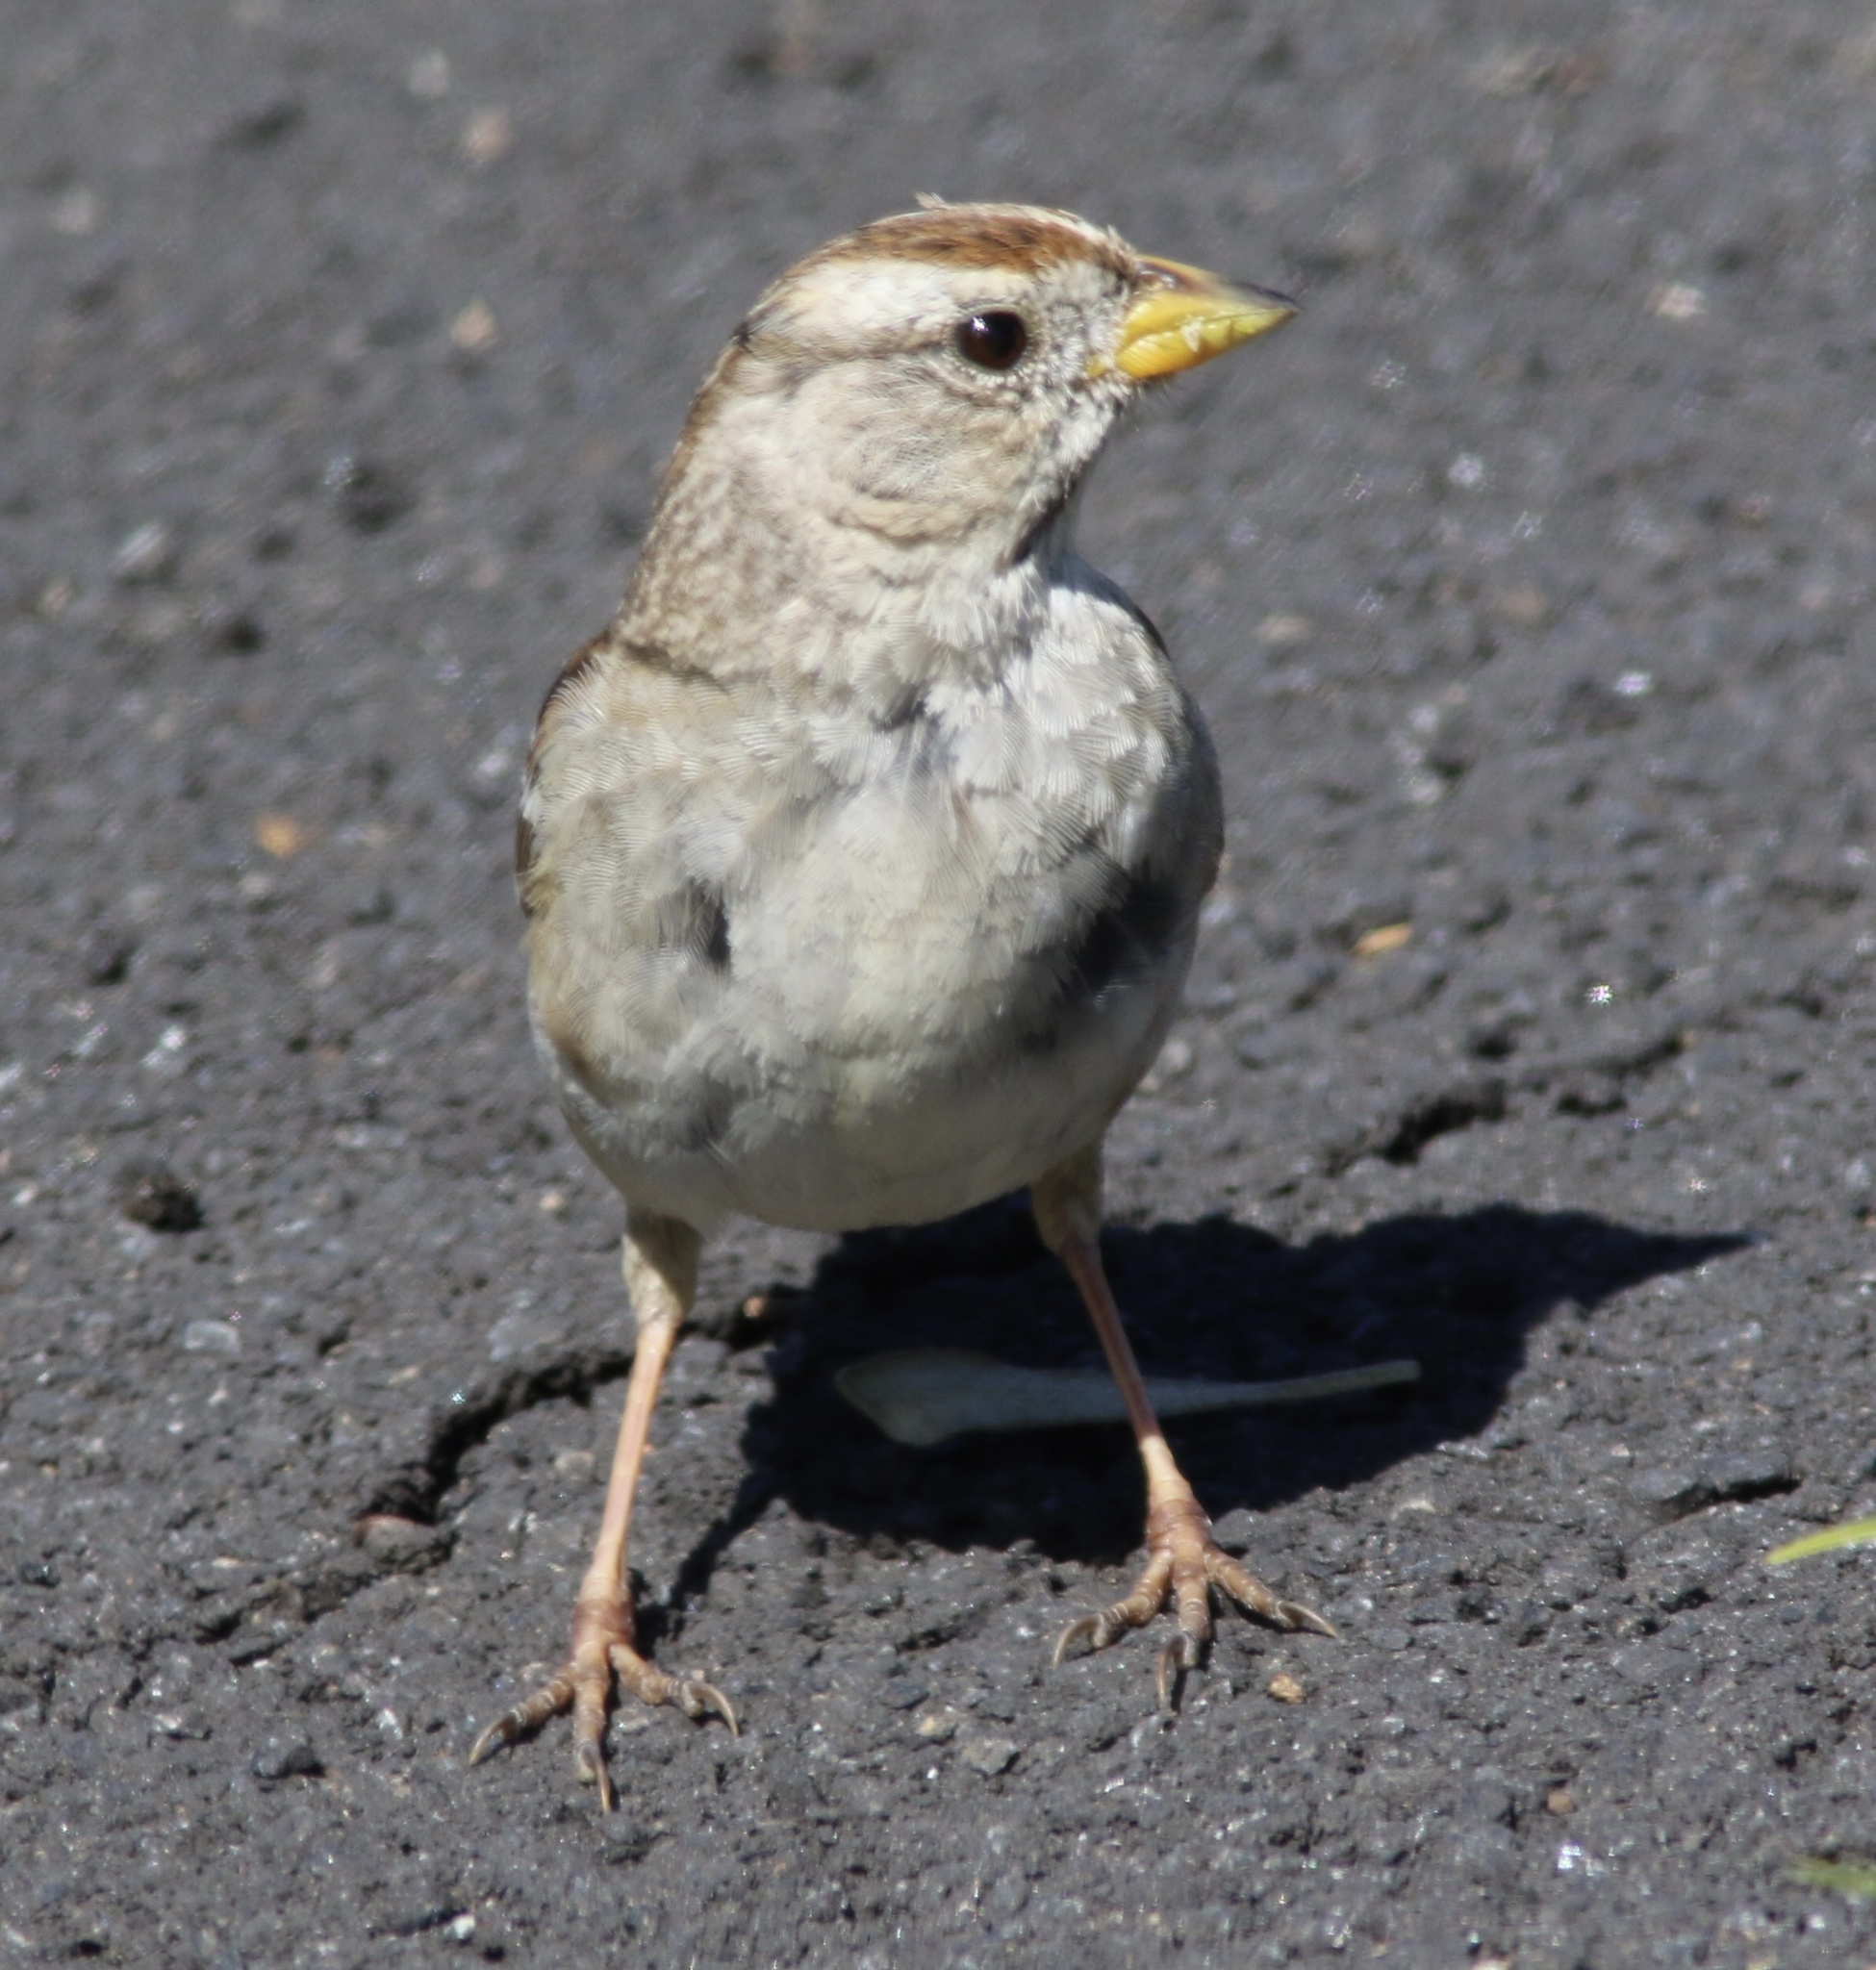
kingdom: Animalia
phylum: Chordata
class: Aves
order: Passeriformes
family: Passerellidae
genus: Zonotrichia
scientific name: Zonotrichia leucophrys
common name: White-crowned sparrow
